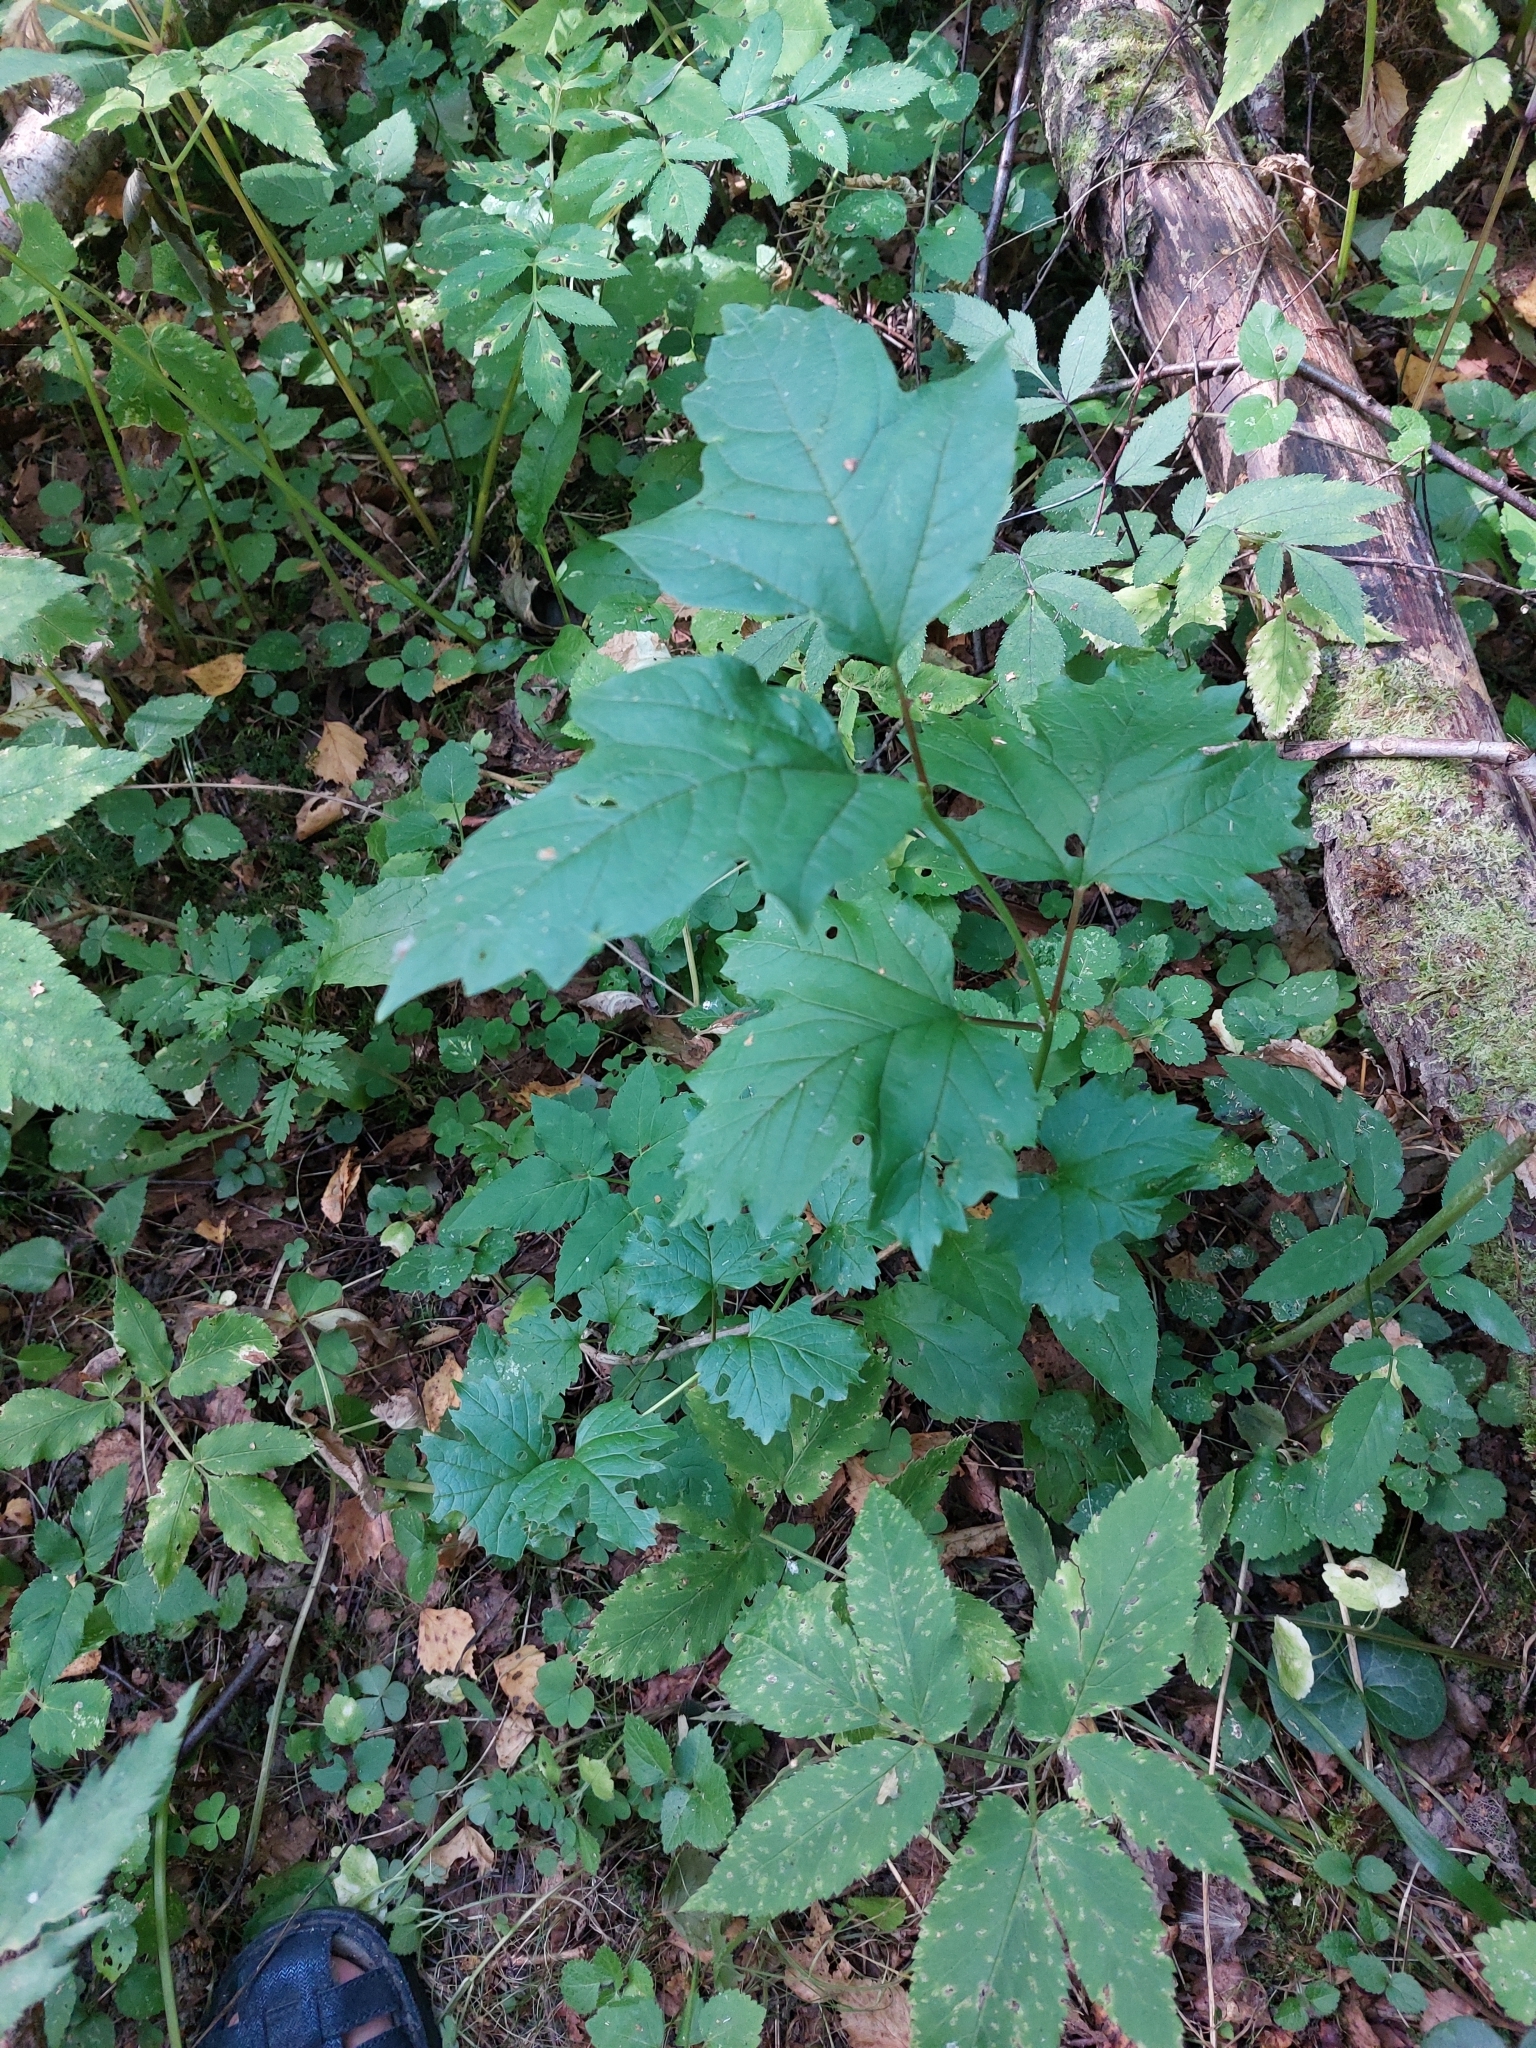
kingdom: Plantae
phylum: Tracheophyta
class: Magnoliopsida
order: Dipsacales
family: Viburnaceae
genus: Viburnum
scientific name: Viburnum opulus
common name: Guelder-rose
